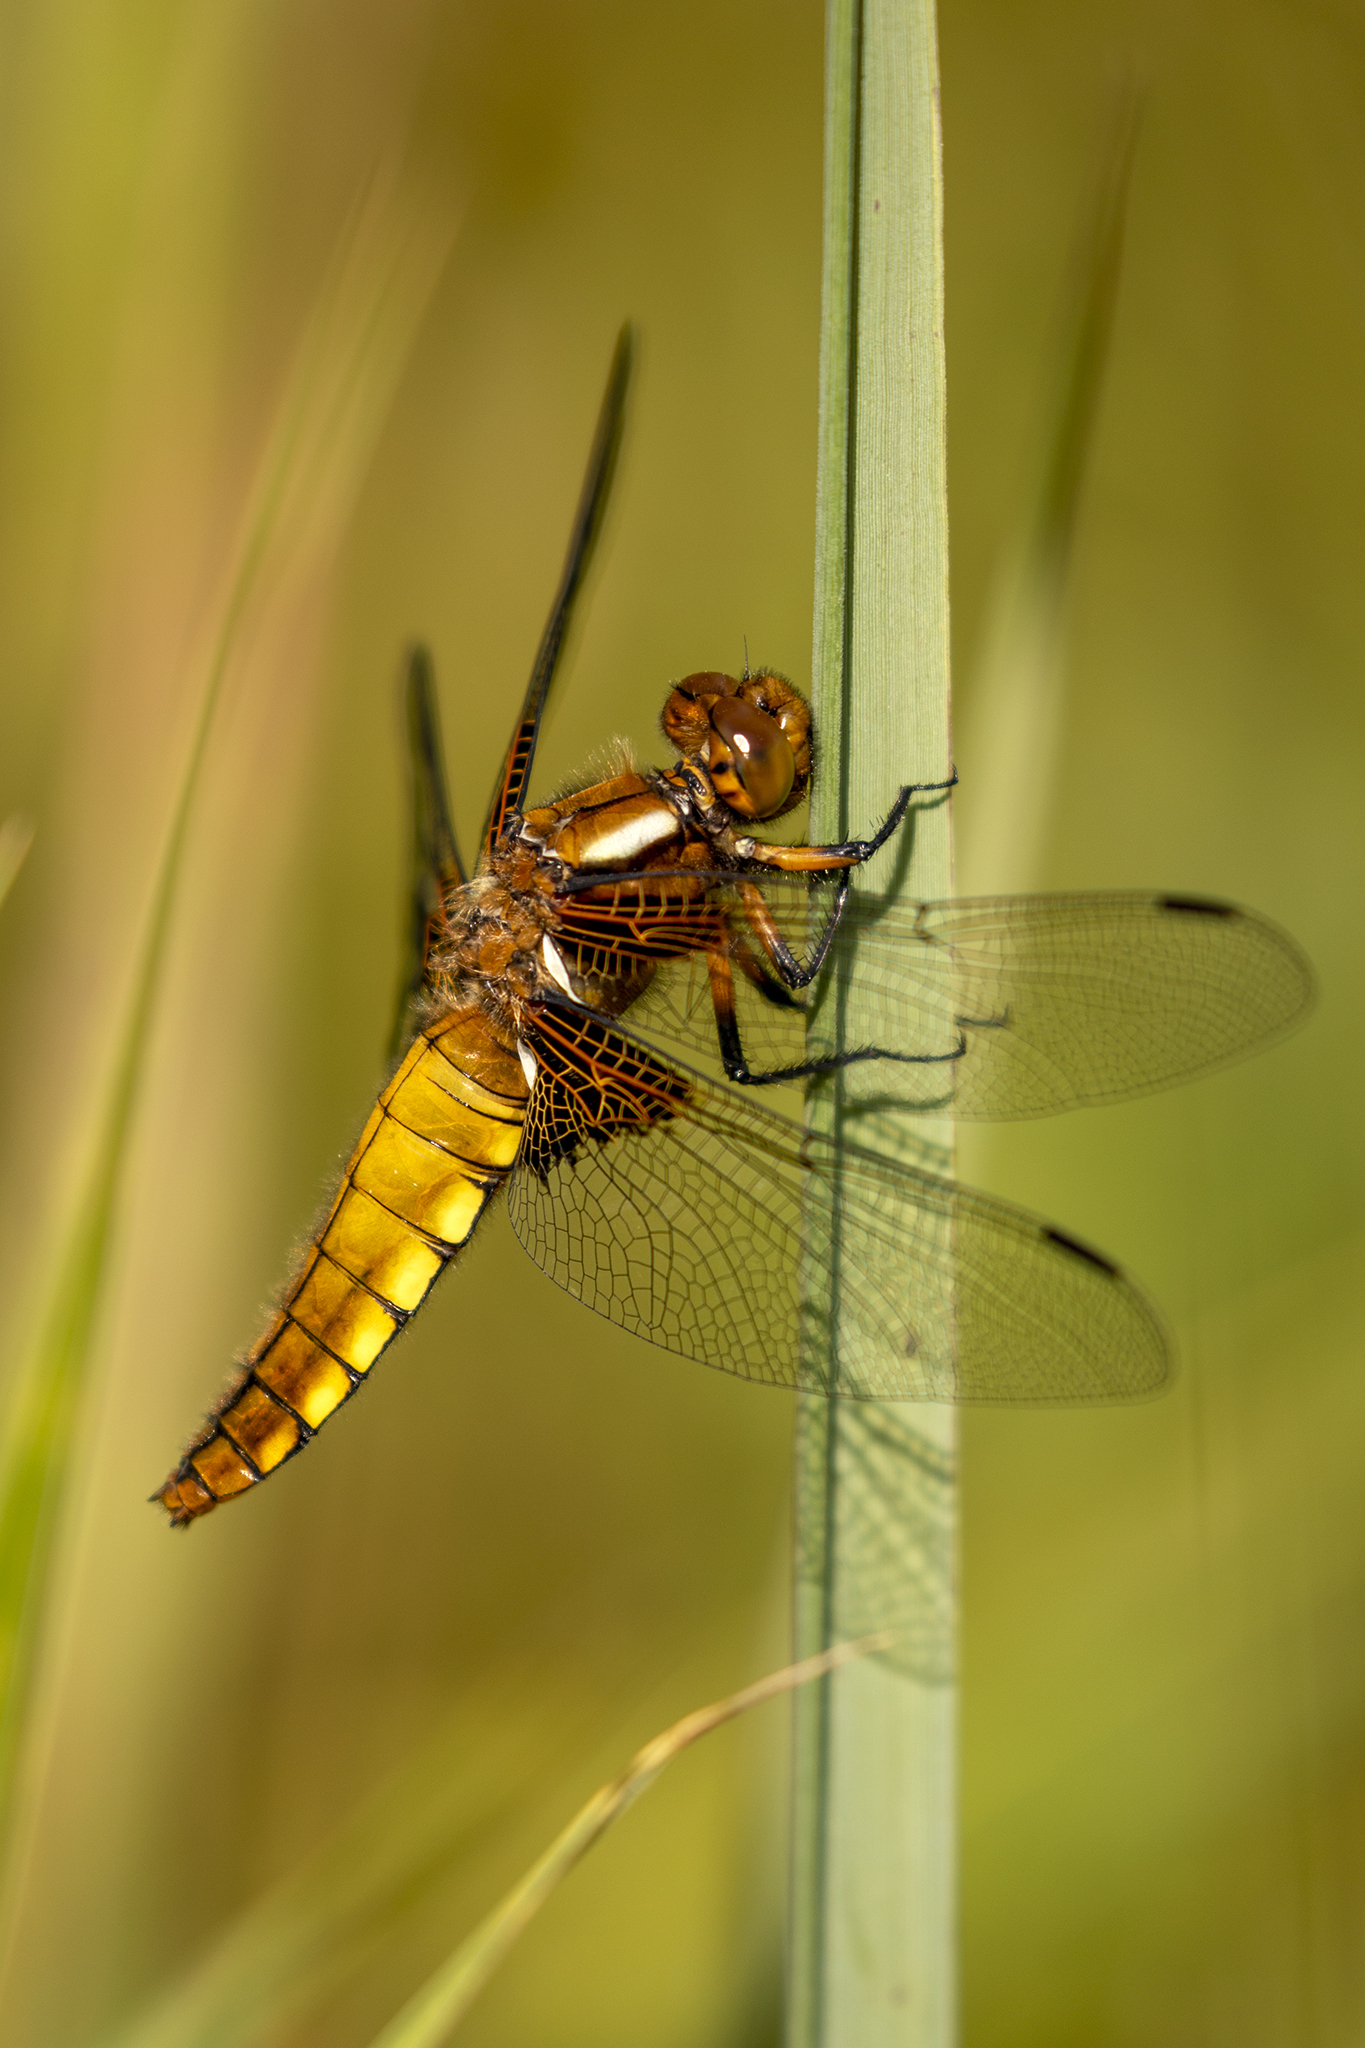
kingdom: Animalia
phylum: Arthropoda
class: Insecta
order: Odonata
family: Libellulidae
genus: Libellula
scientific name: Libellula depressa
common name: Broad-bodied chaser
